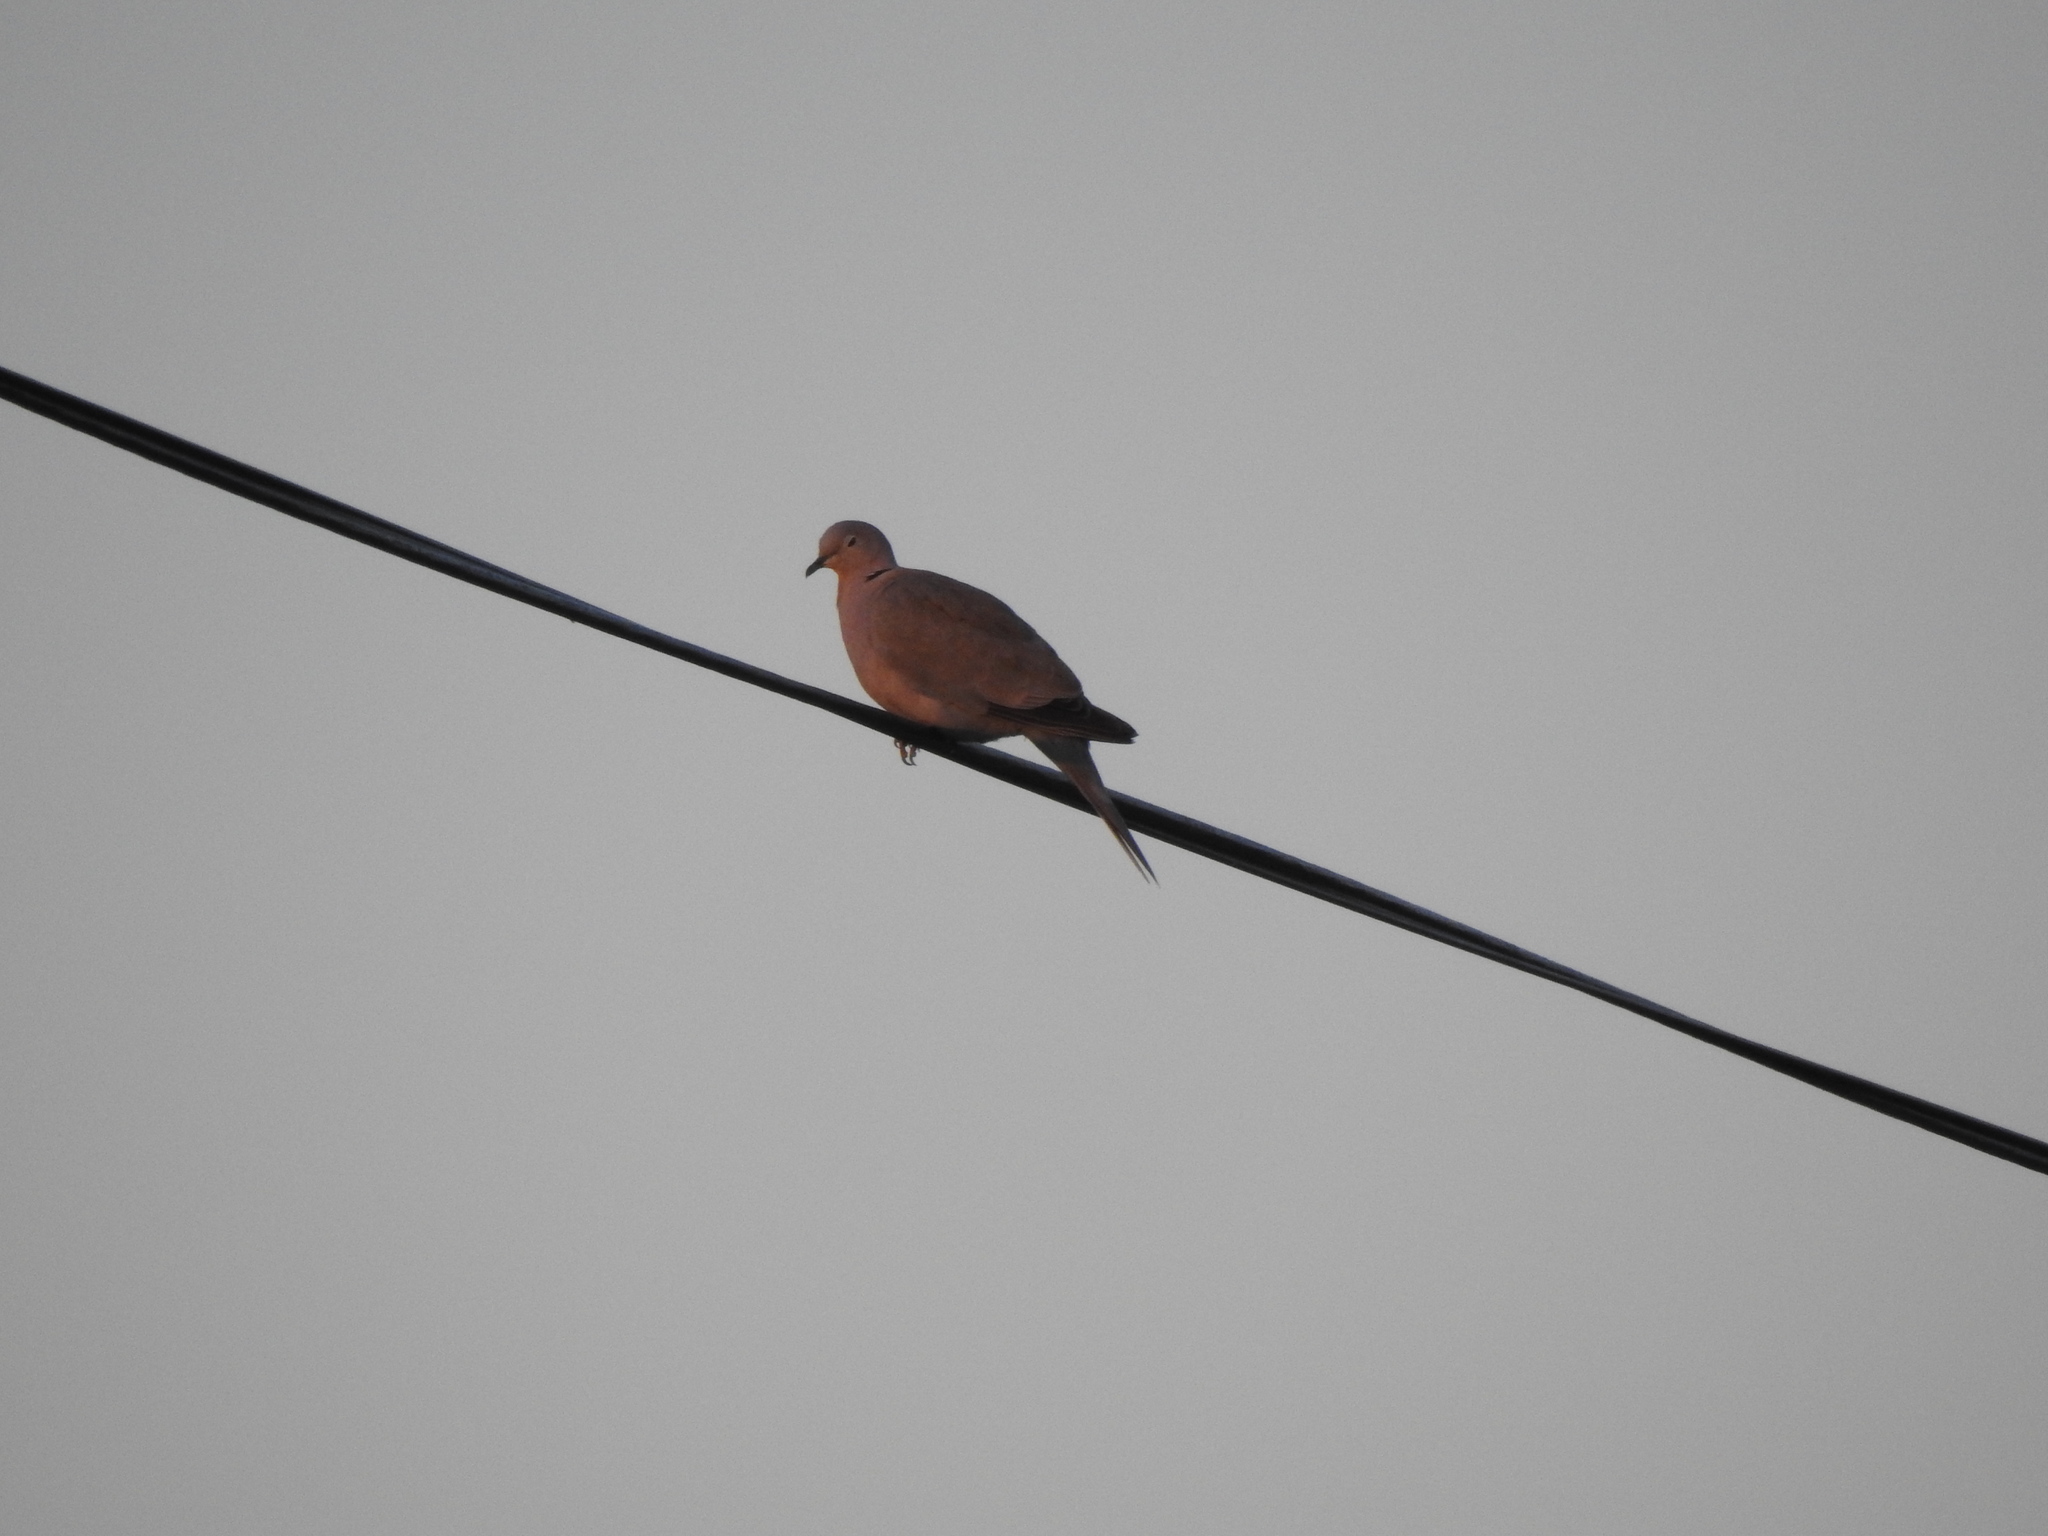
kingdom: Animalia
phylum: Chordata
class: Aves
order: Columbiformes
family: Columbidae
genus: Streptopelia
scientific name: Streptopelia decaocto
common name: Eurasian collared dove
